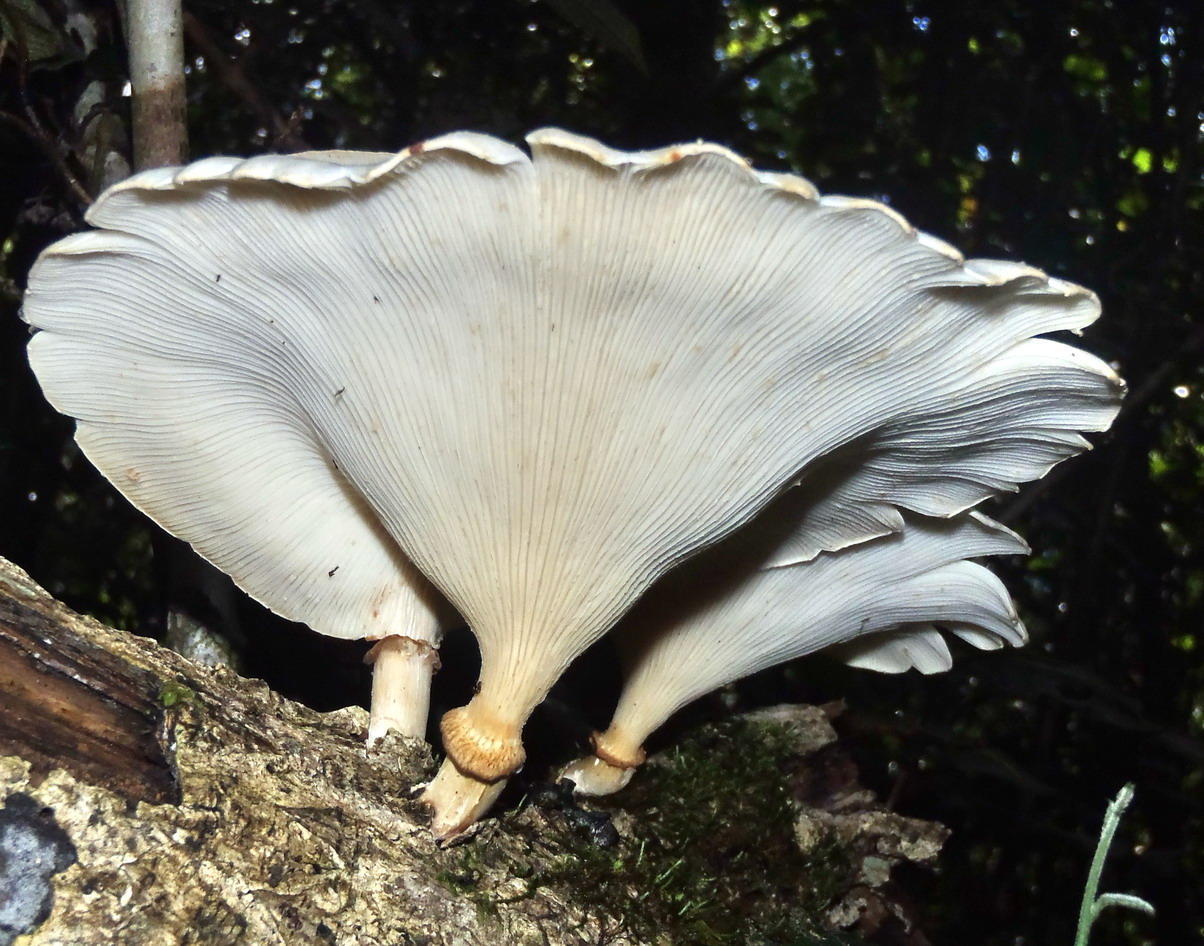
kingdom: Fungi
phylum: Basidiomycota
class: Agaricomycetes
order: Polyporales
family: Polyporaceae
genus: Lentinus
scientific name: Lentinus sajor-caju
